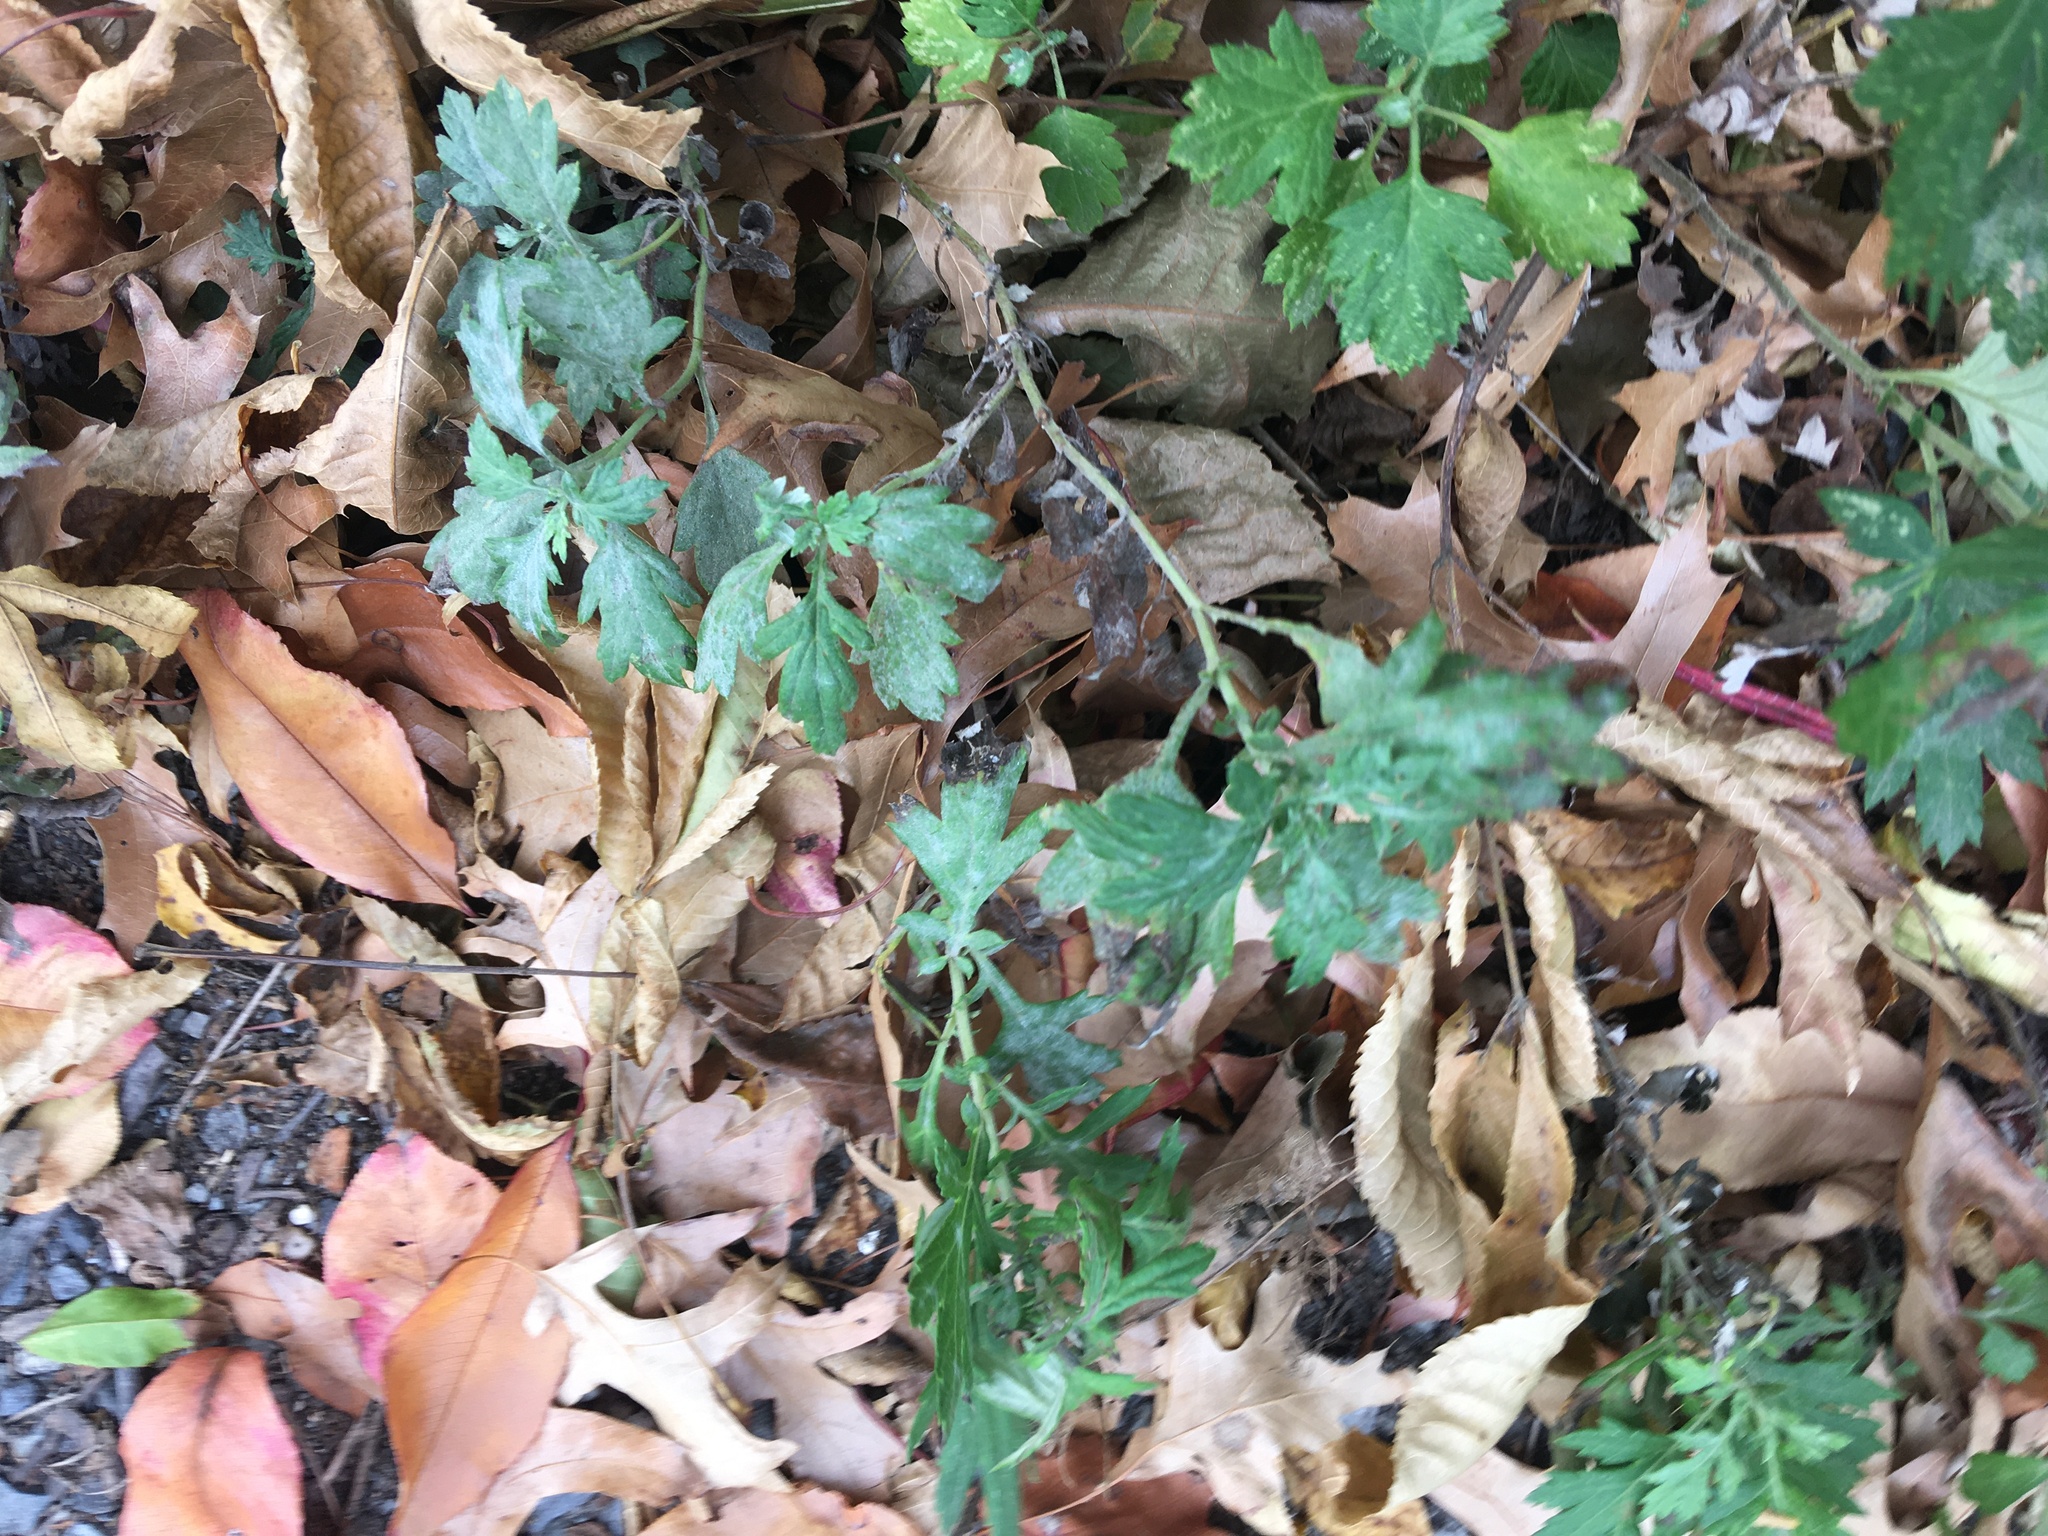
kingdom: Plantae
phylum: Tracheophyta
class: Magnoliopsida
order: Asterales
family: Asteraceae
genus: Artemisia
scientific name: Artemisia vulgaris
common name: Mugwort
